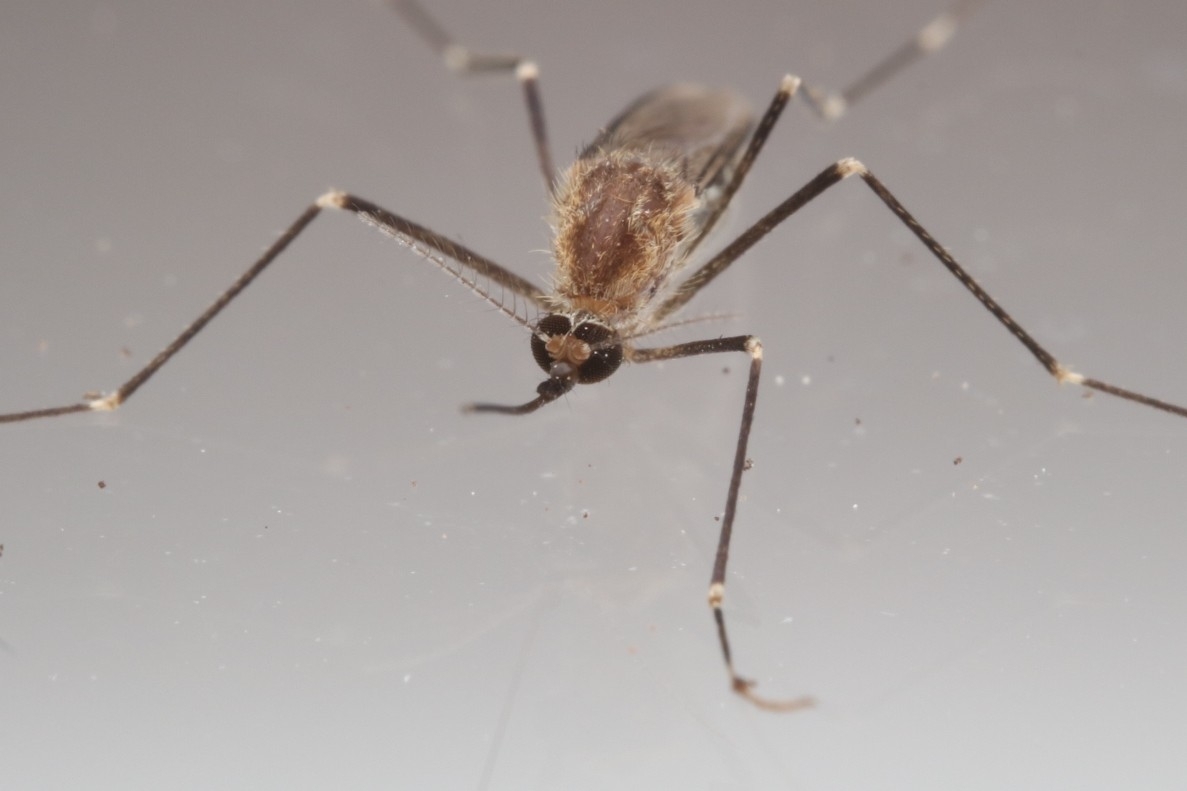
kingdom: Animalia
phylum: Arthropoda
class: Insecta
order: Diptera
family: Culicidae
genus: Aedes
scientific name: Aedes epactius
